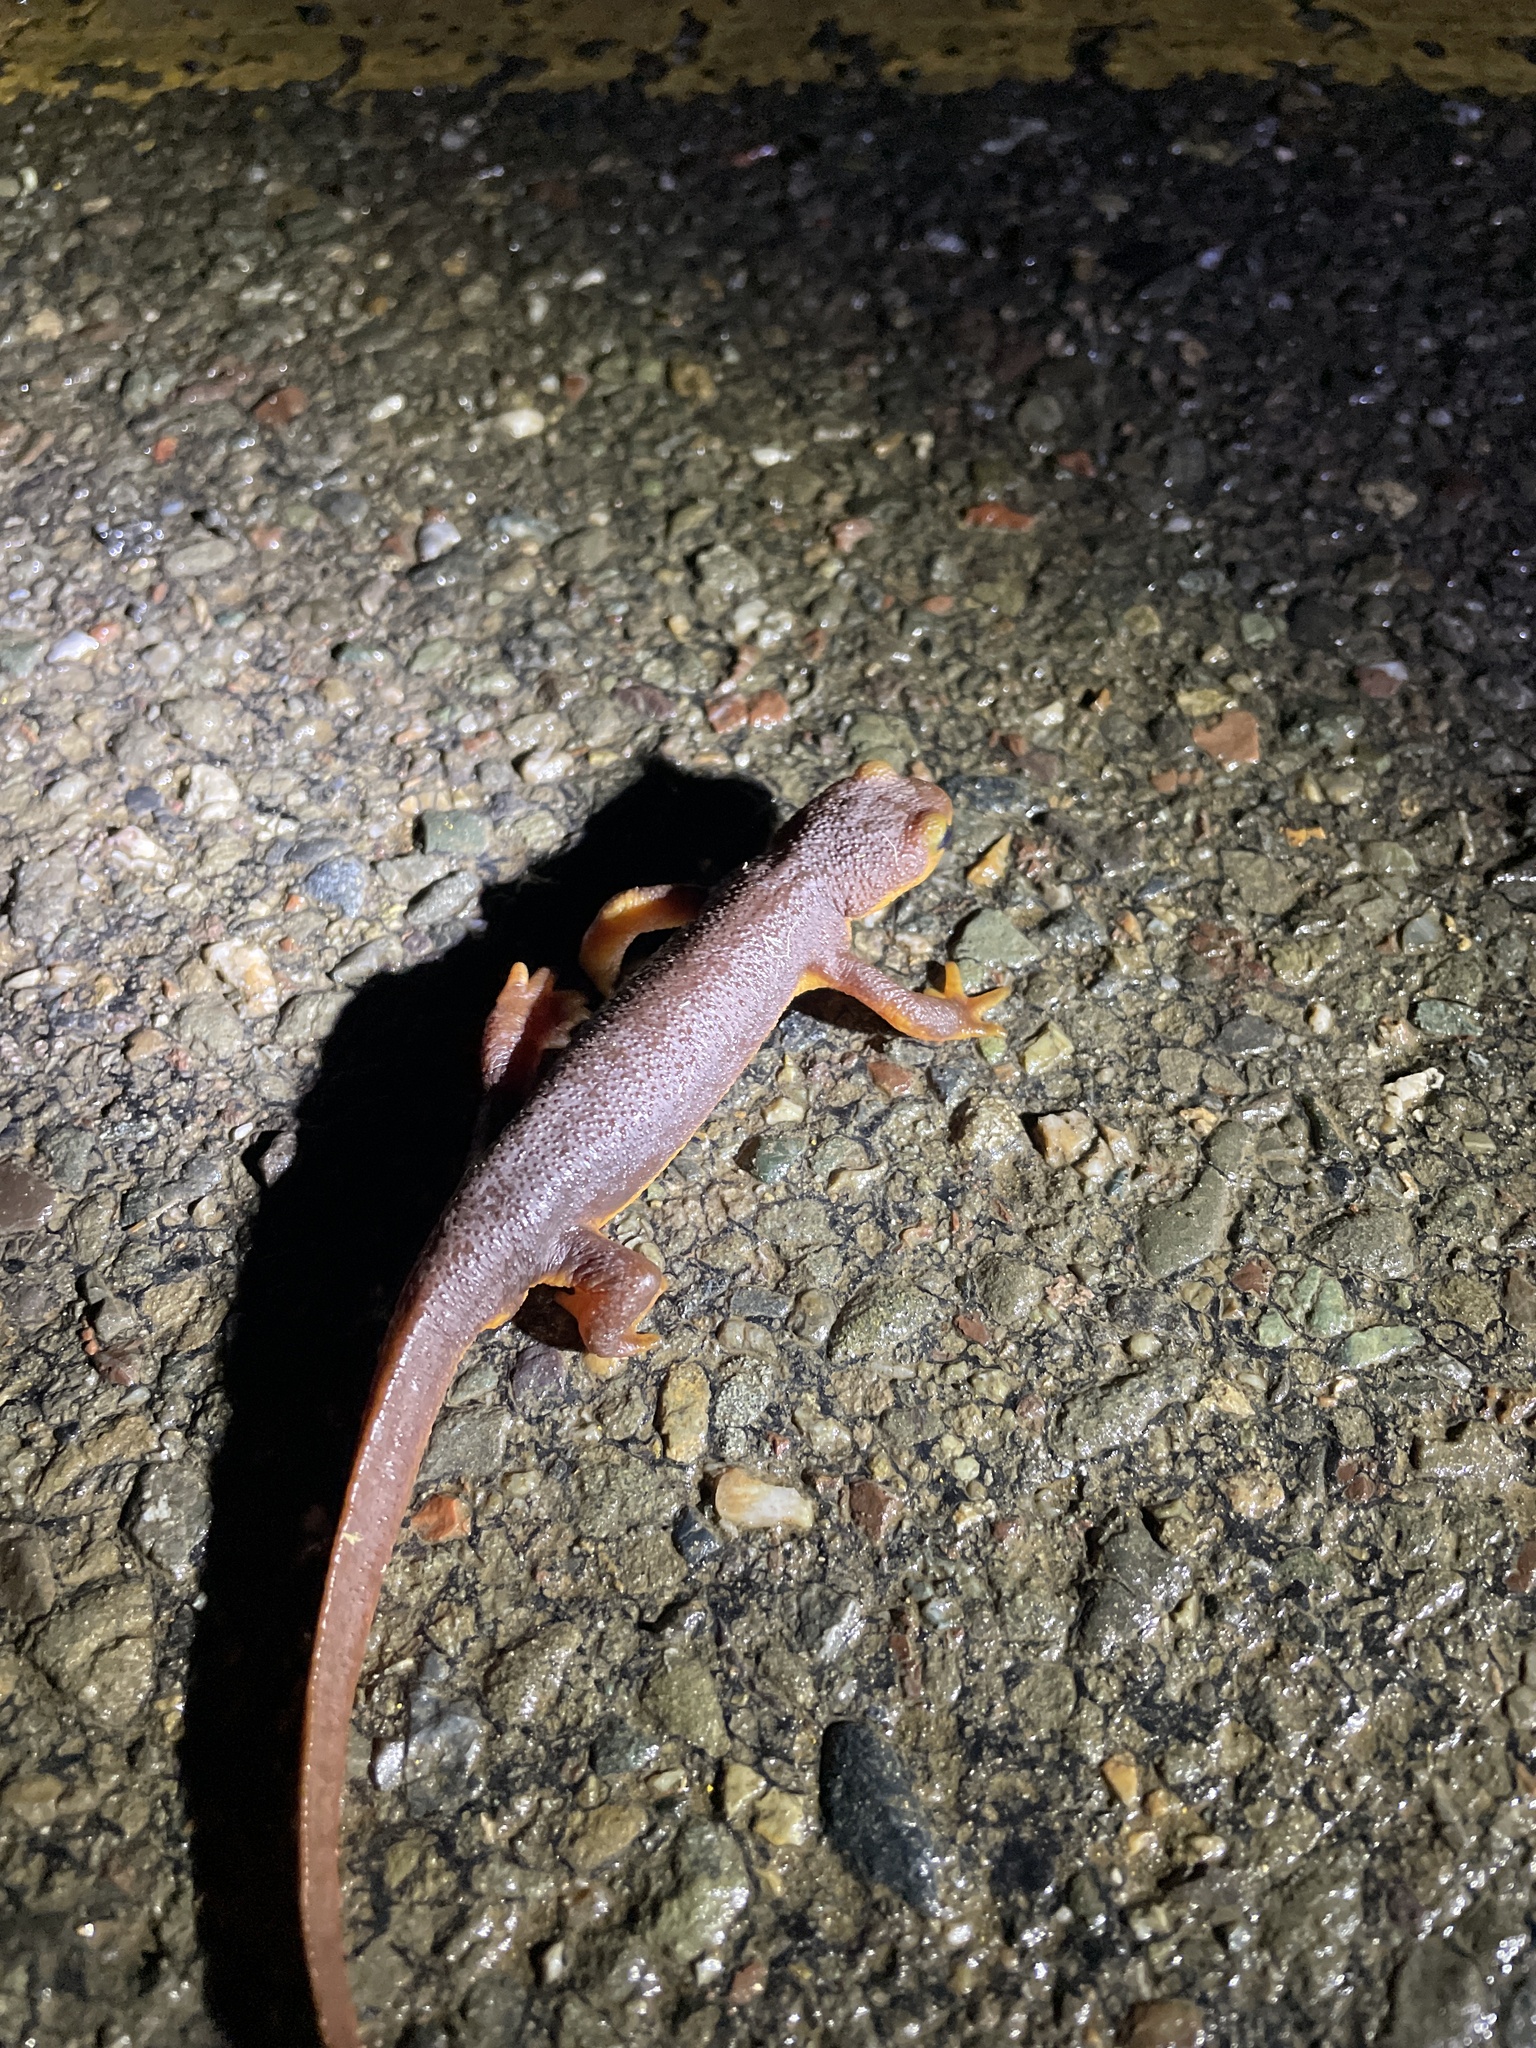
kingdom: Animalia
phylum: Chordata
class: Amphibia
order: Caudata
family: Salamandridae
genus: Taricha
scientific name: Taricha torosa
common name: California newt
